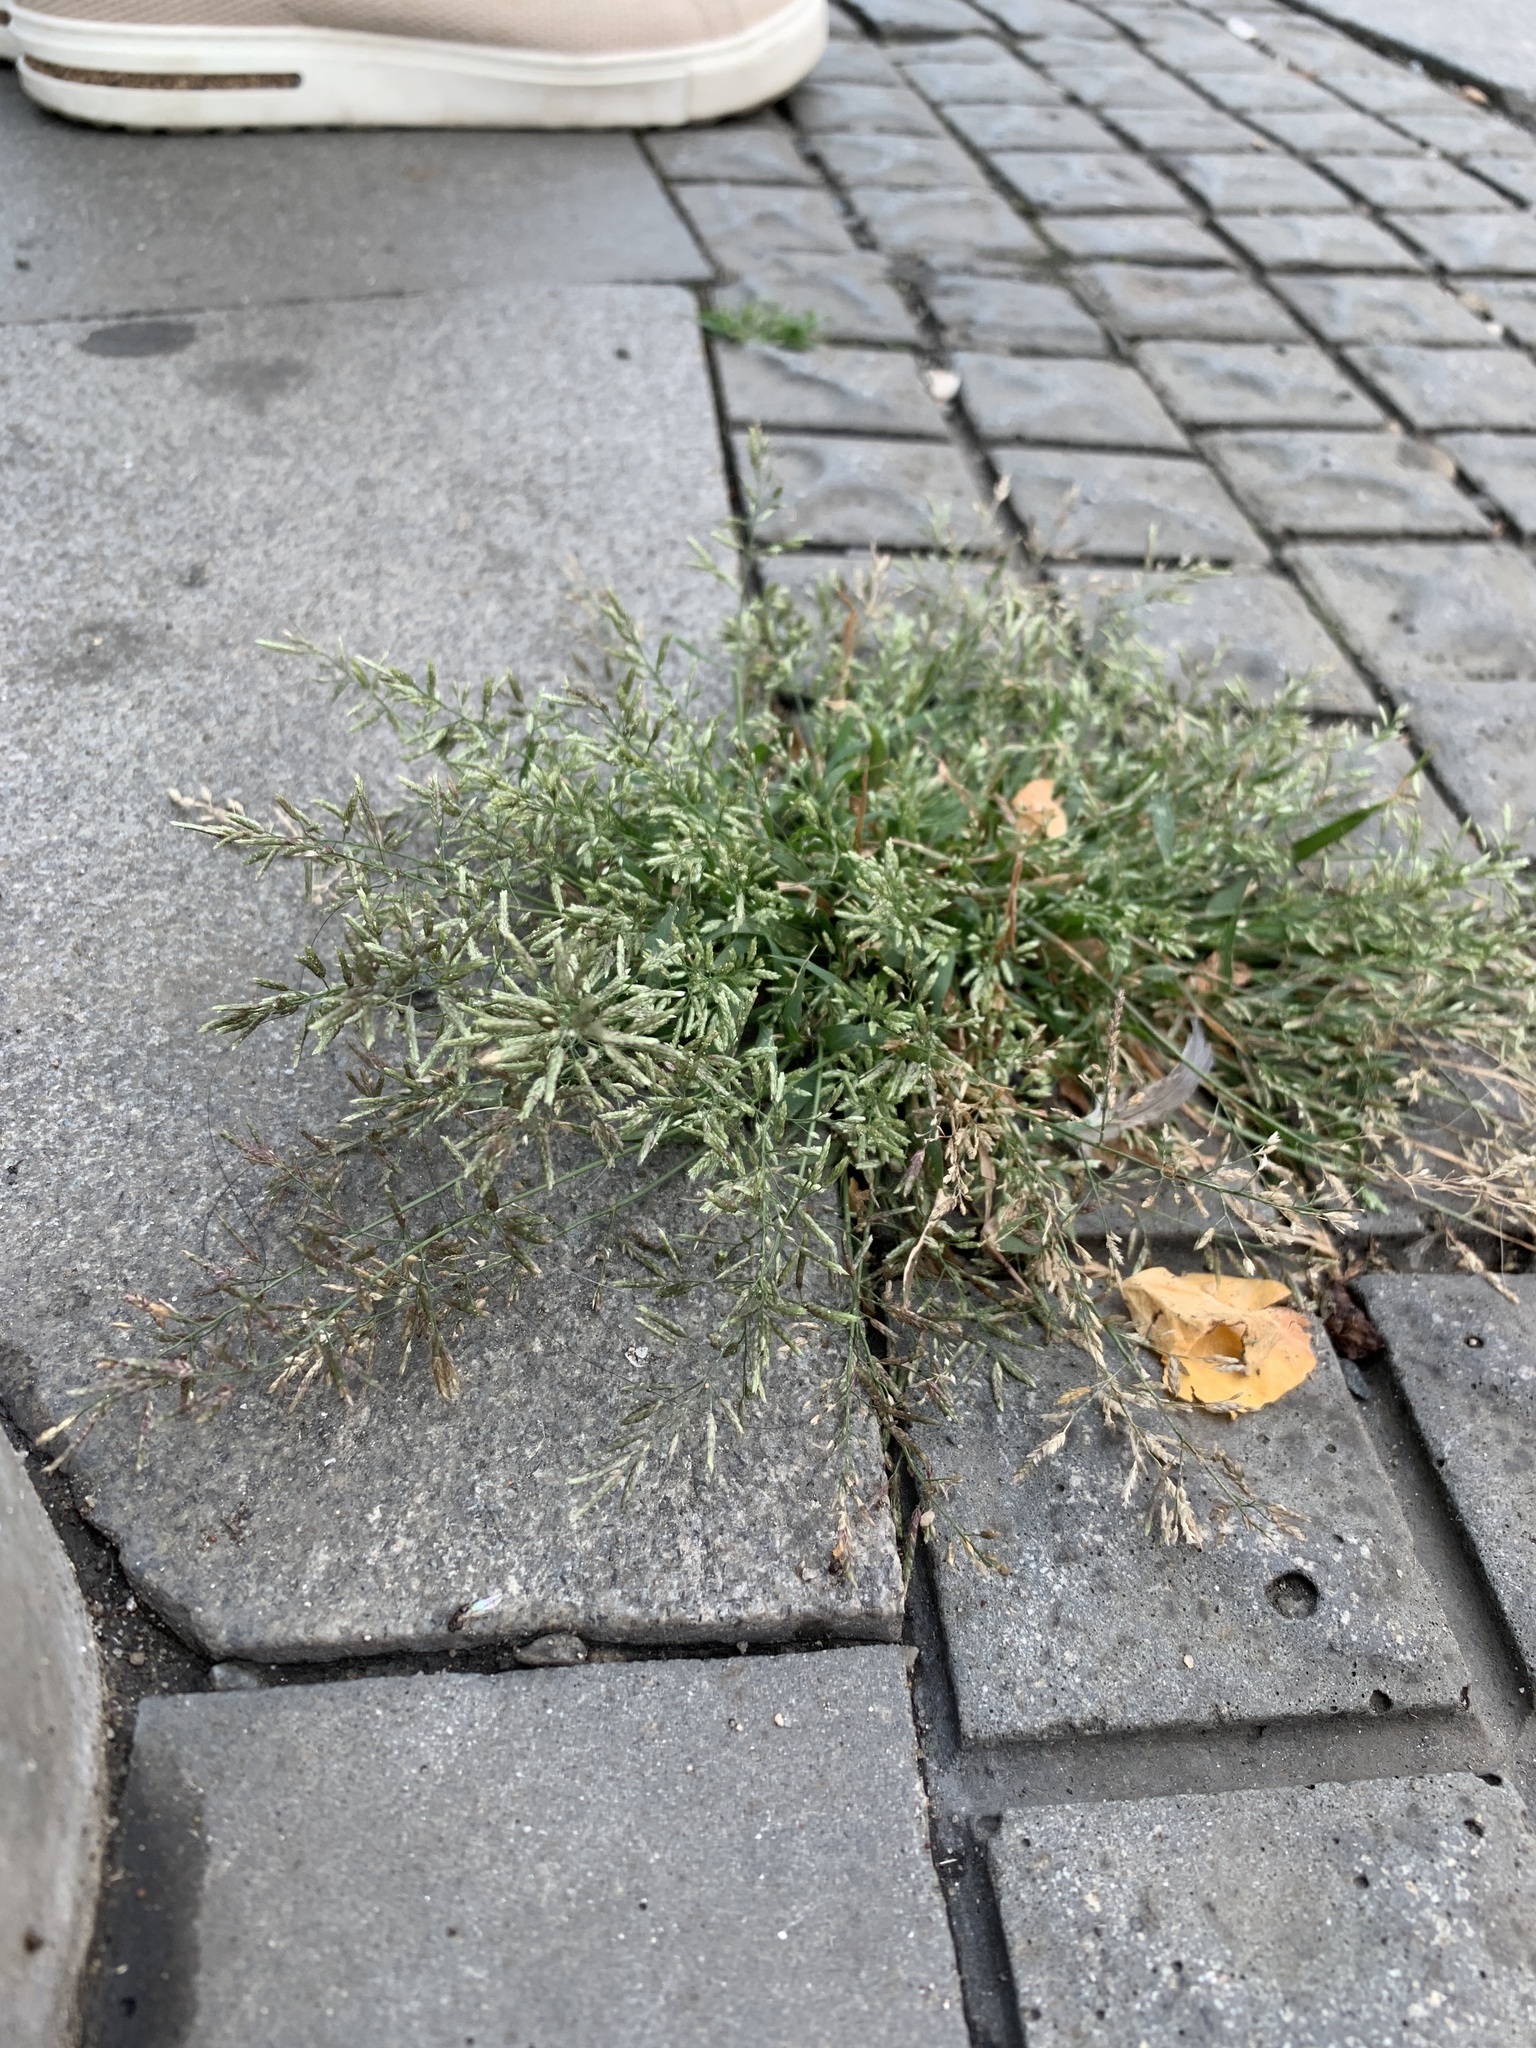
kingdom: Plantae
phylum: Tracheophyta
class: Liliopsida
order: Poales
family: Poaceae
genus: Eragrostis
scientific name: Eragrostis minor
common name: Small love-grass
